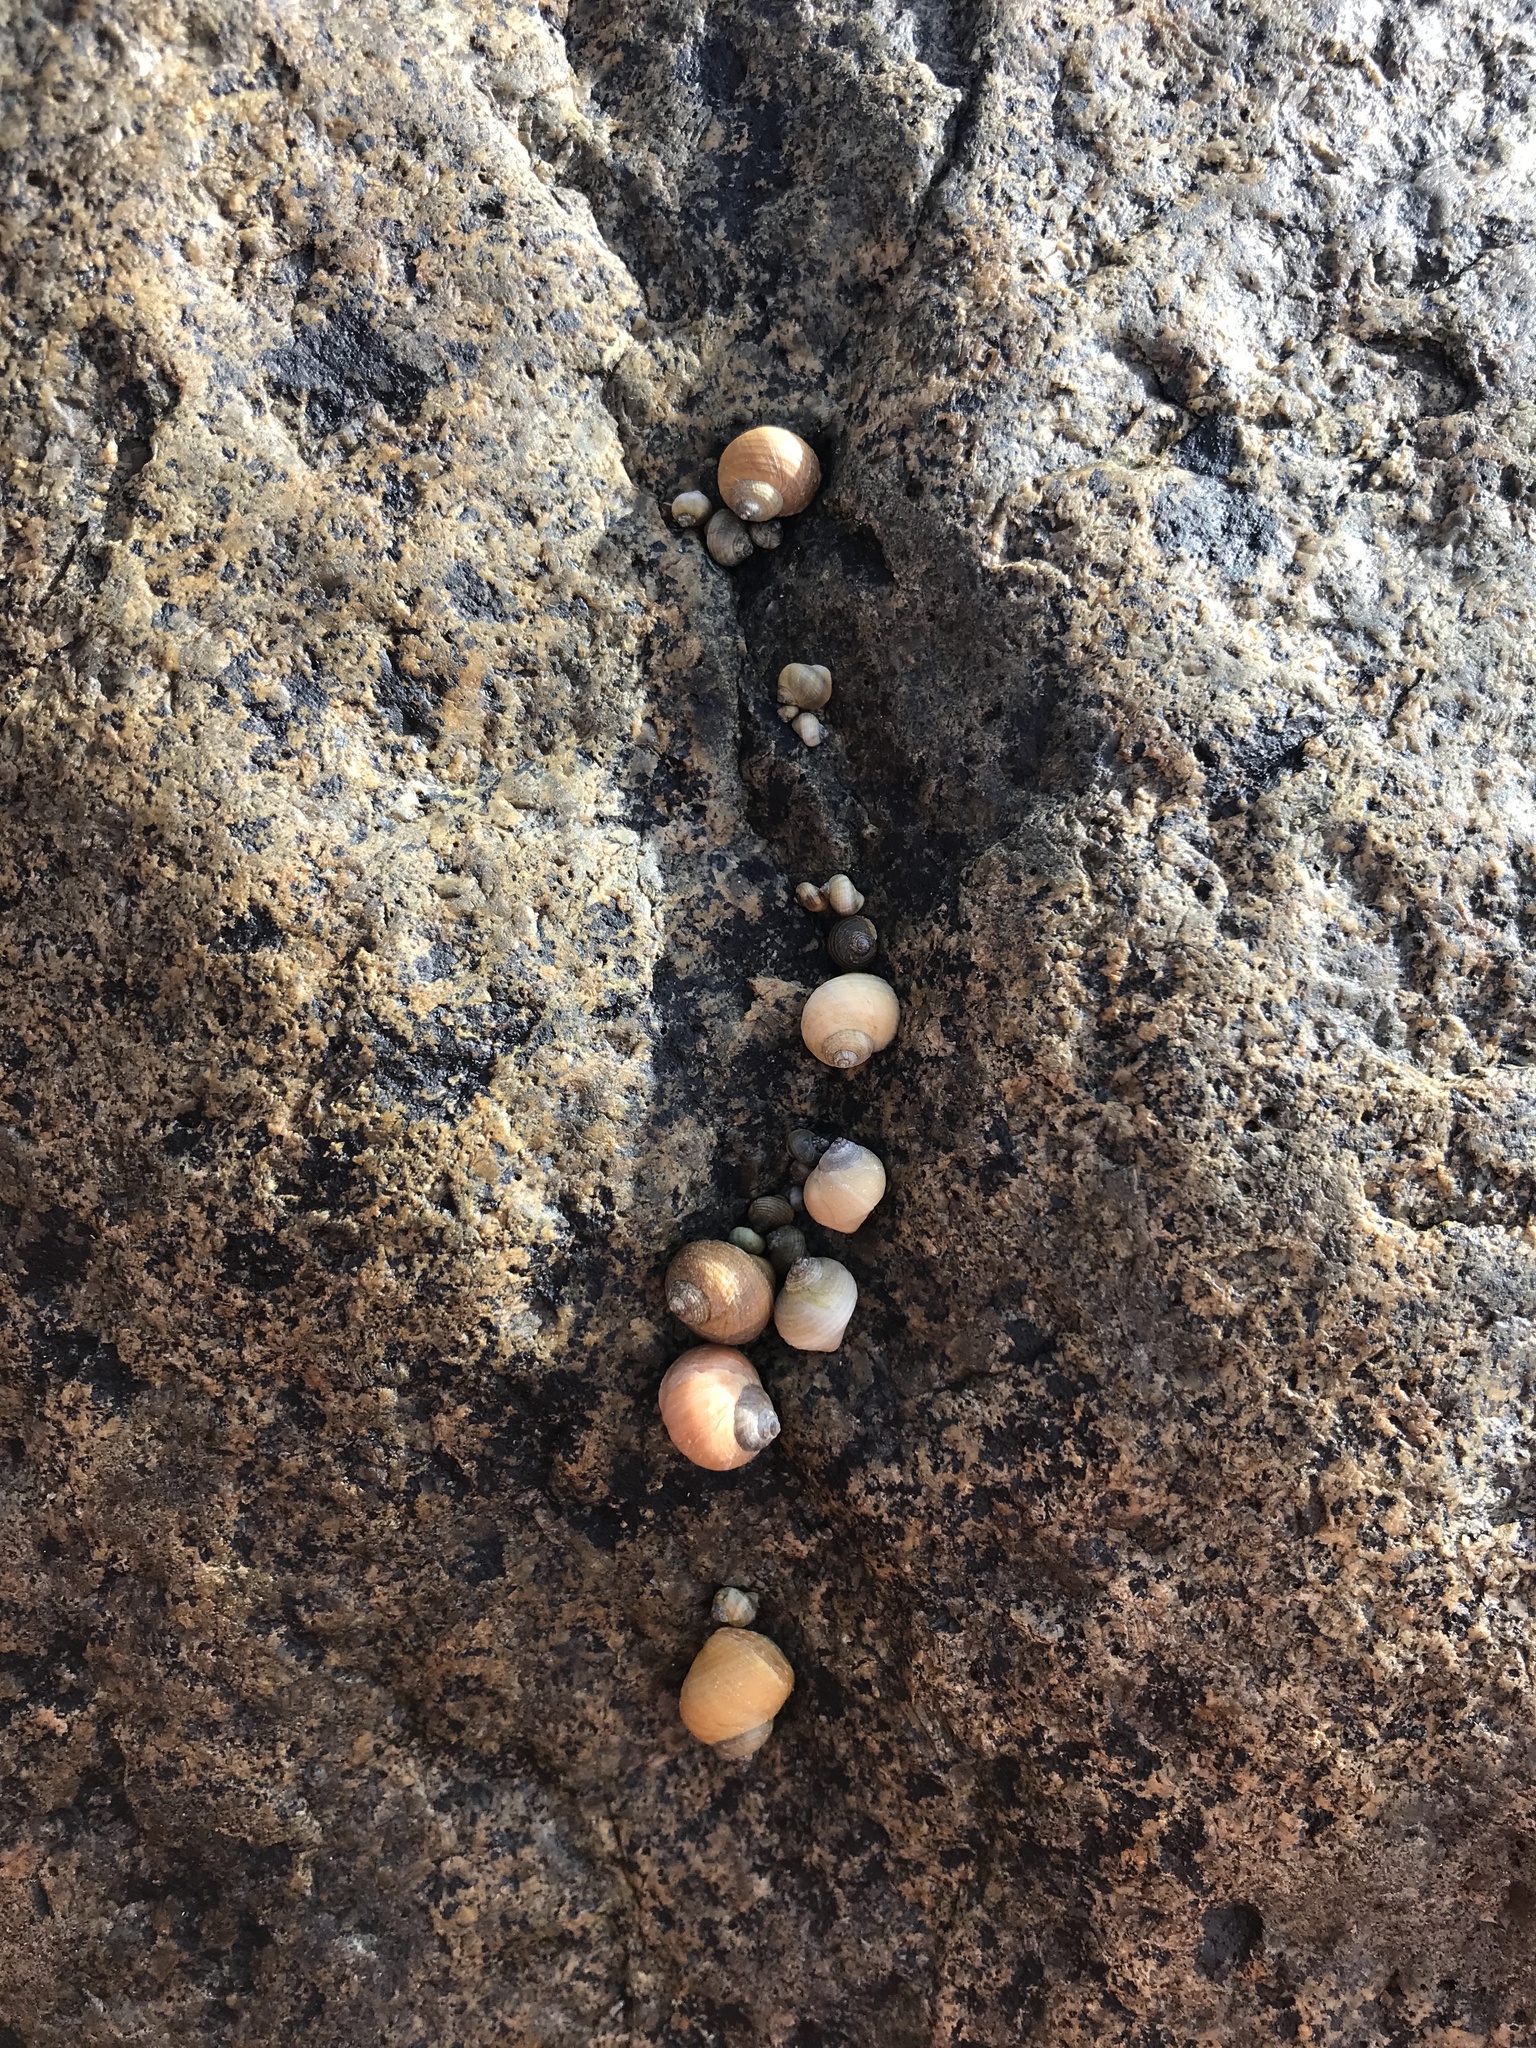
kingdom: Animalia
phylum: Mollusca
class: Gastropoda
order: Littorinimorpha
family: Littorinidae
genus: Littorina
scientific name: Littorina saxatilis
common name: Black-lined periwinkle
